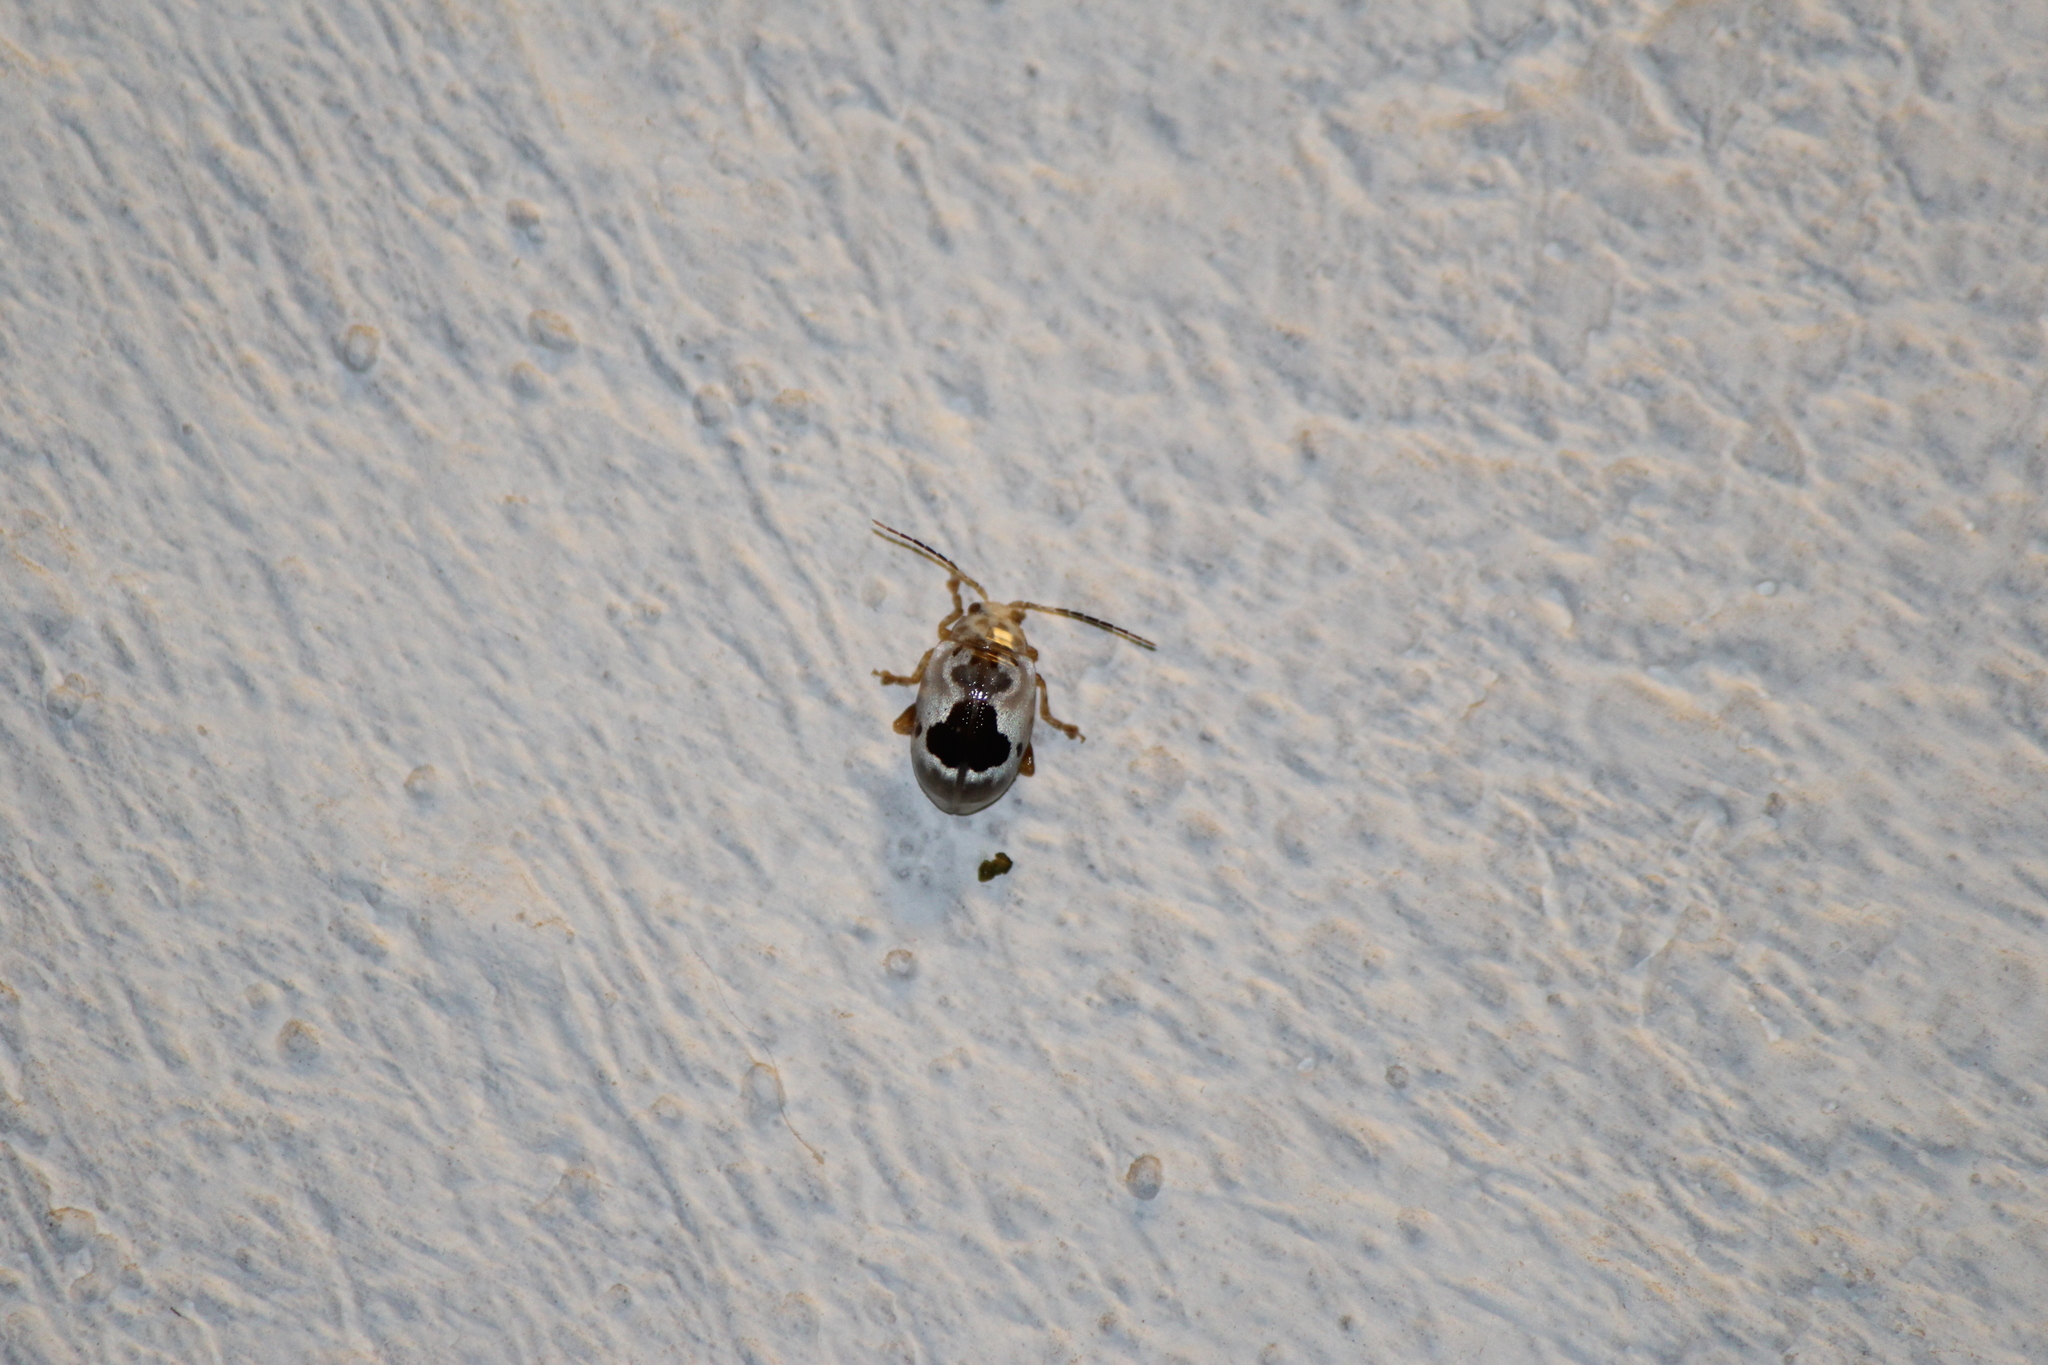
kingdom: Animalia
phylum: Arthropoda
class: Insecta
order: Coleoptera
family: Chrysomelidae
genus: Acrocyum
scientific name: Acrocyum
